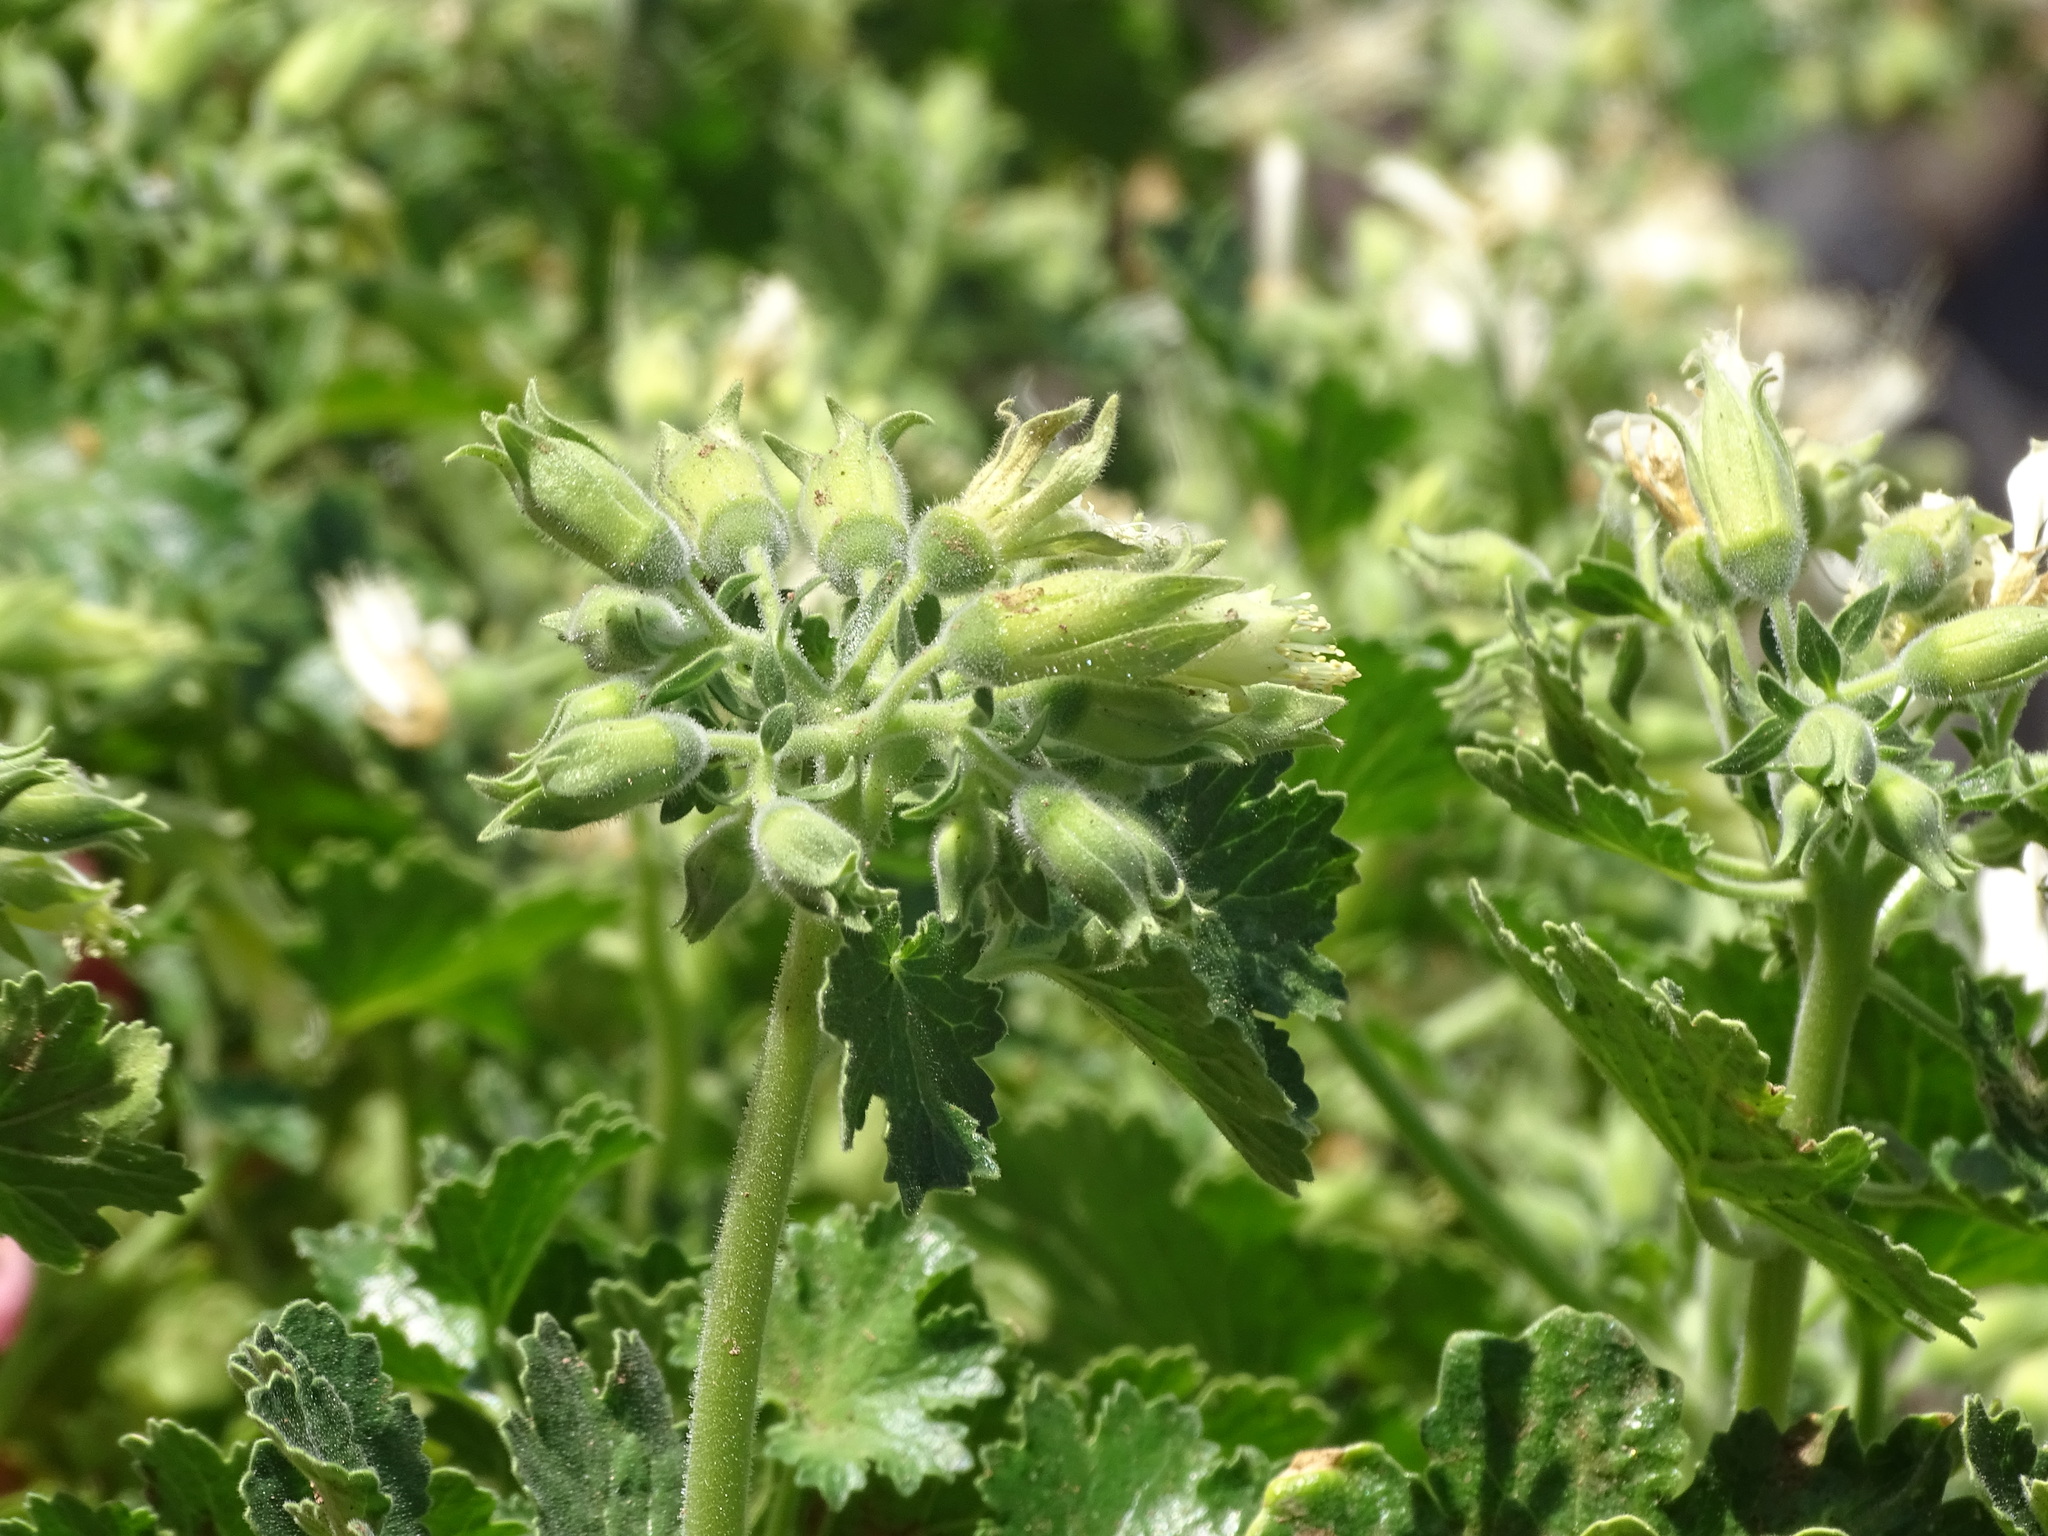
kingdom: Plantae
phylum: Tracheophyta
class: Magnoliopsida
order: Cornales
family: Loasaceae
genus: Eucnide
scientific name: Eucnide cordata
